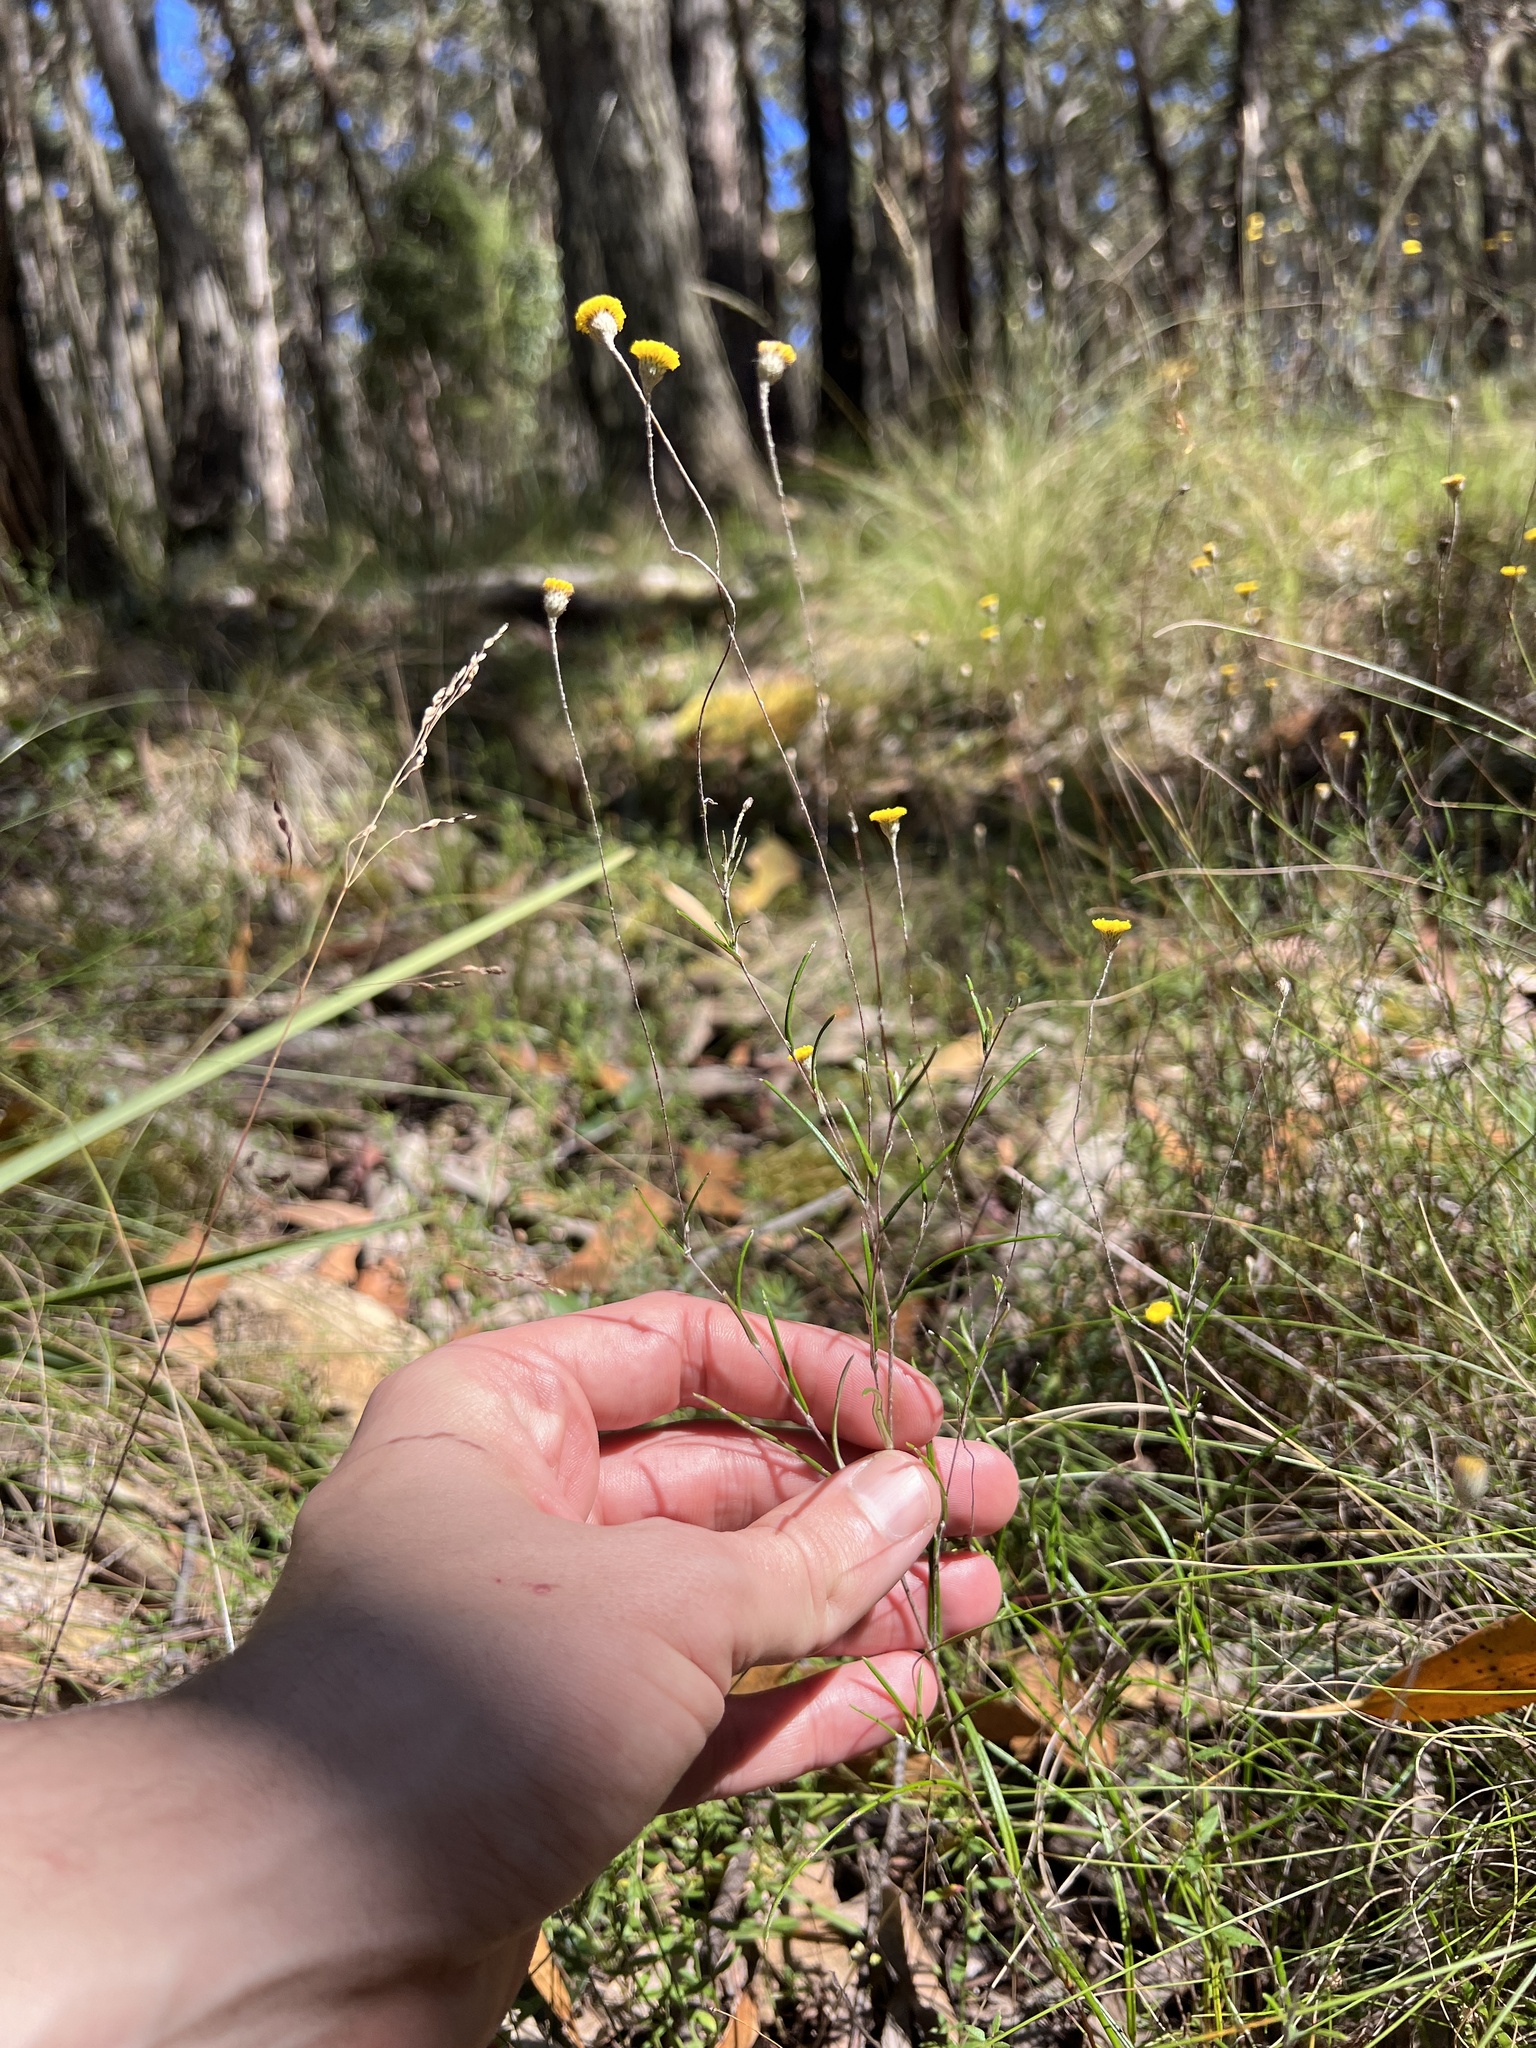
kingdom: Plantae
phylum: Tracheophyta
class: Magnoliopsida
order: Asterales
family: Asteraceae
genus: Leptorhynchos
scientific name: Leptorhynchos tenuifolius
